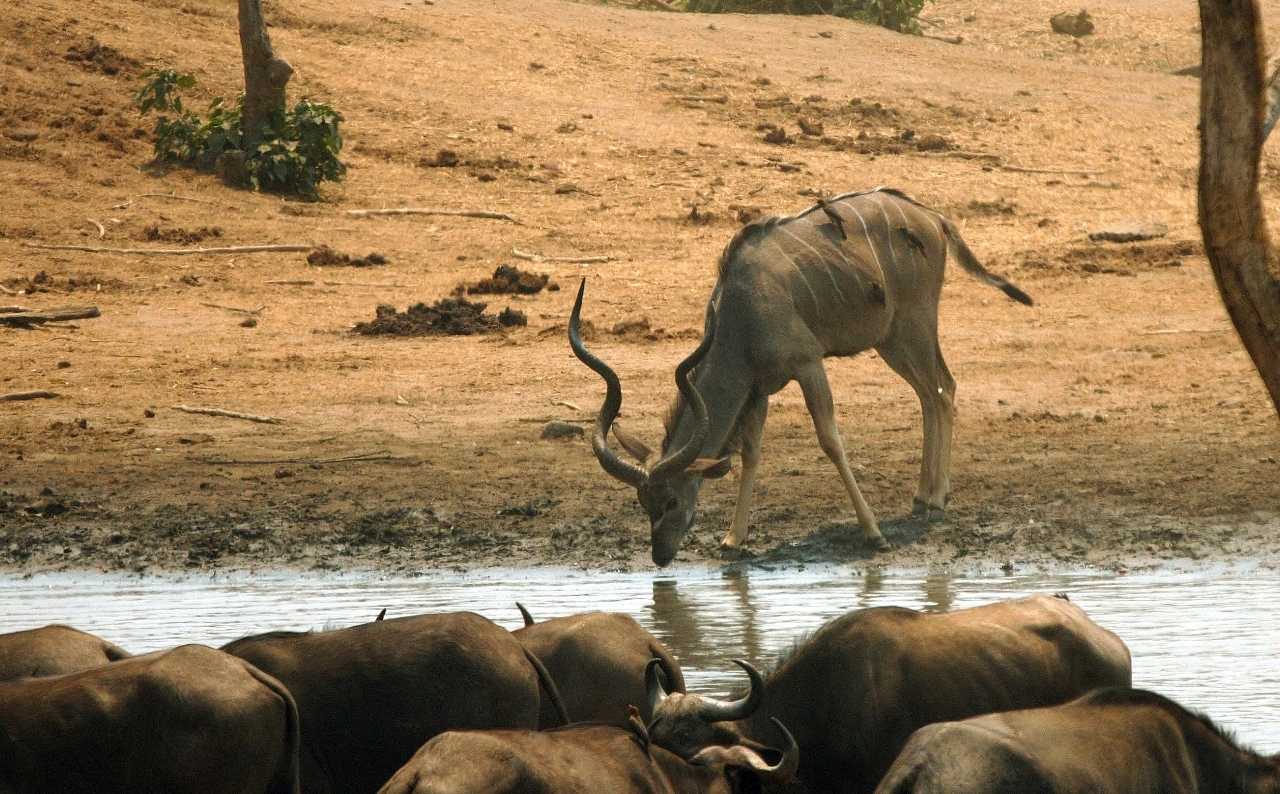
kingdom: Animalia
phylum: Chordata
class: Mammalia
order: Artiodactyla
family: Bovidae
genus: Tragelaphus
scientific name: Tragelaphus strepsiceros
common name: Greater kudu
